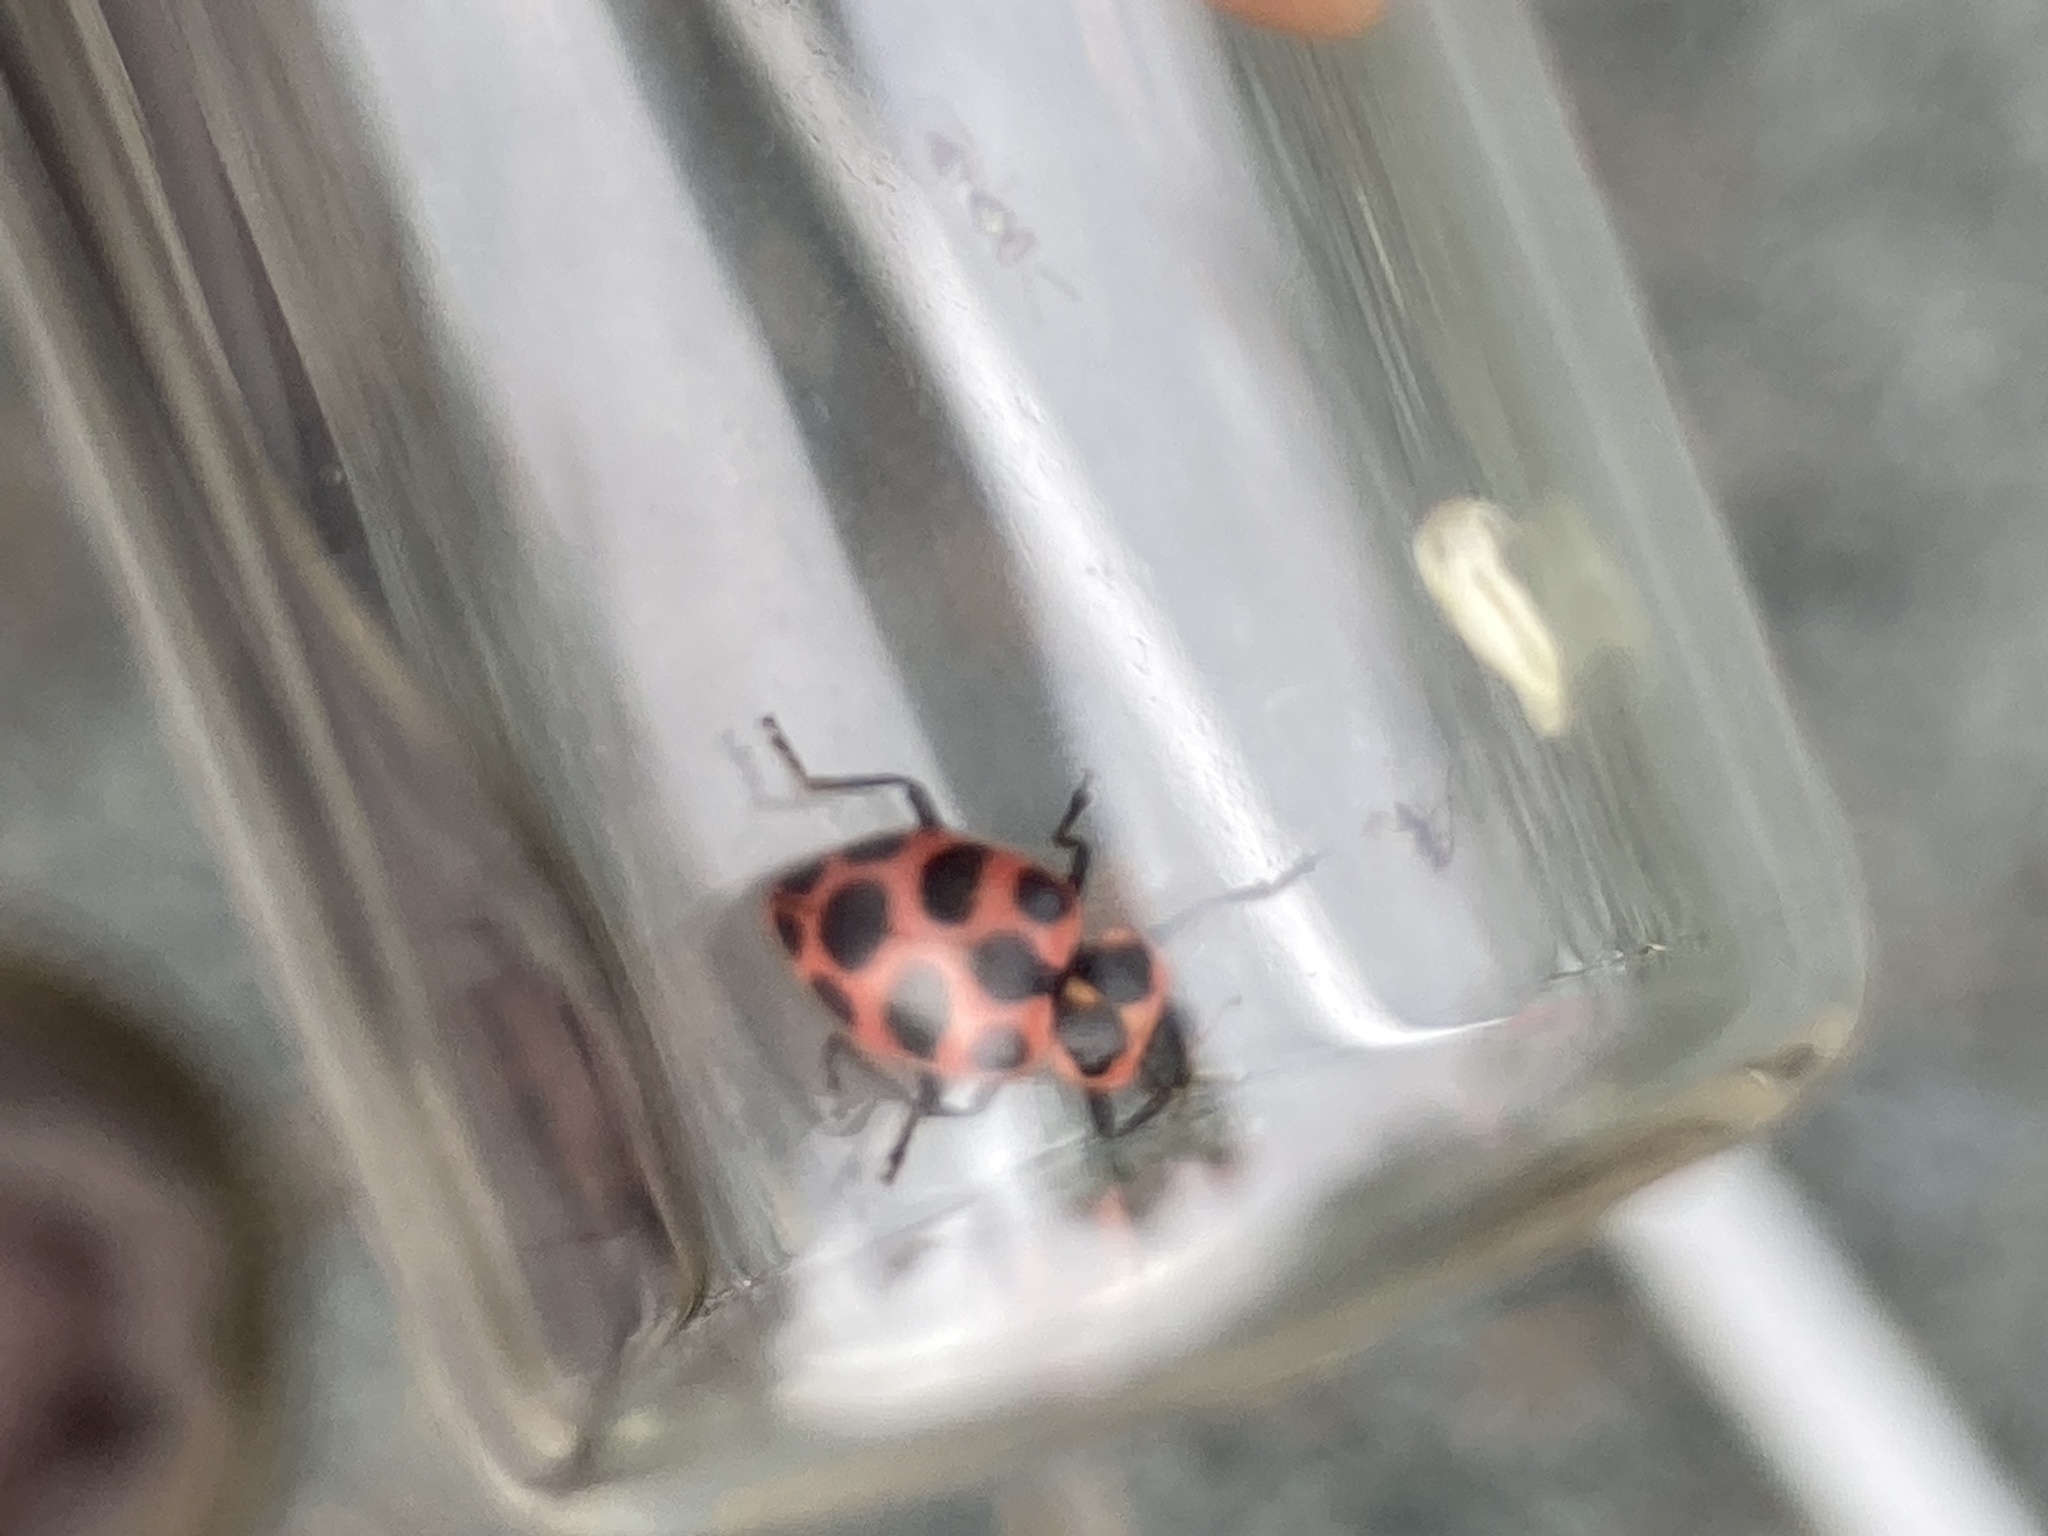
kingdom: Animalia
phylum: Arthropoda
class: Insecta
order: Coleoptera
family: Coccinellidae
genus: Coleomegilla
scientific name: Coleomegilla maculata
